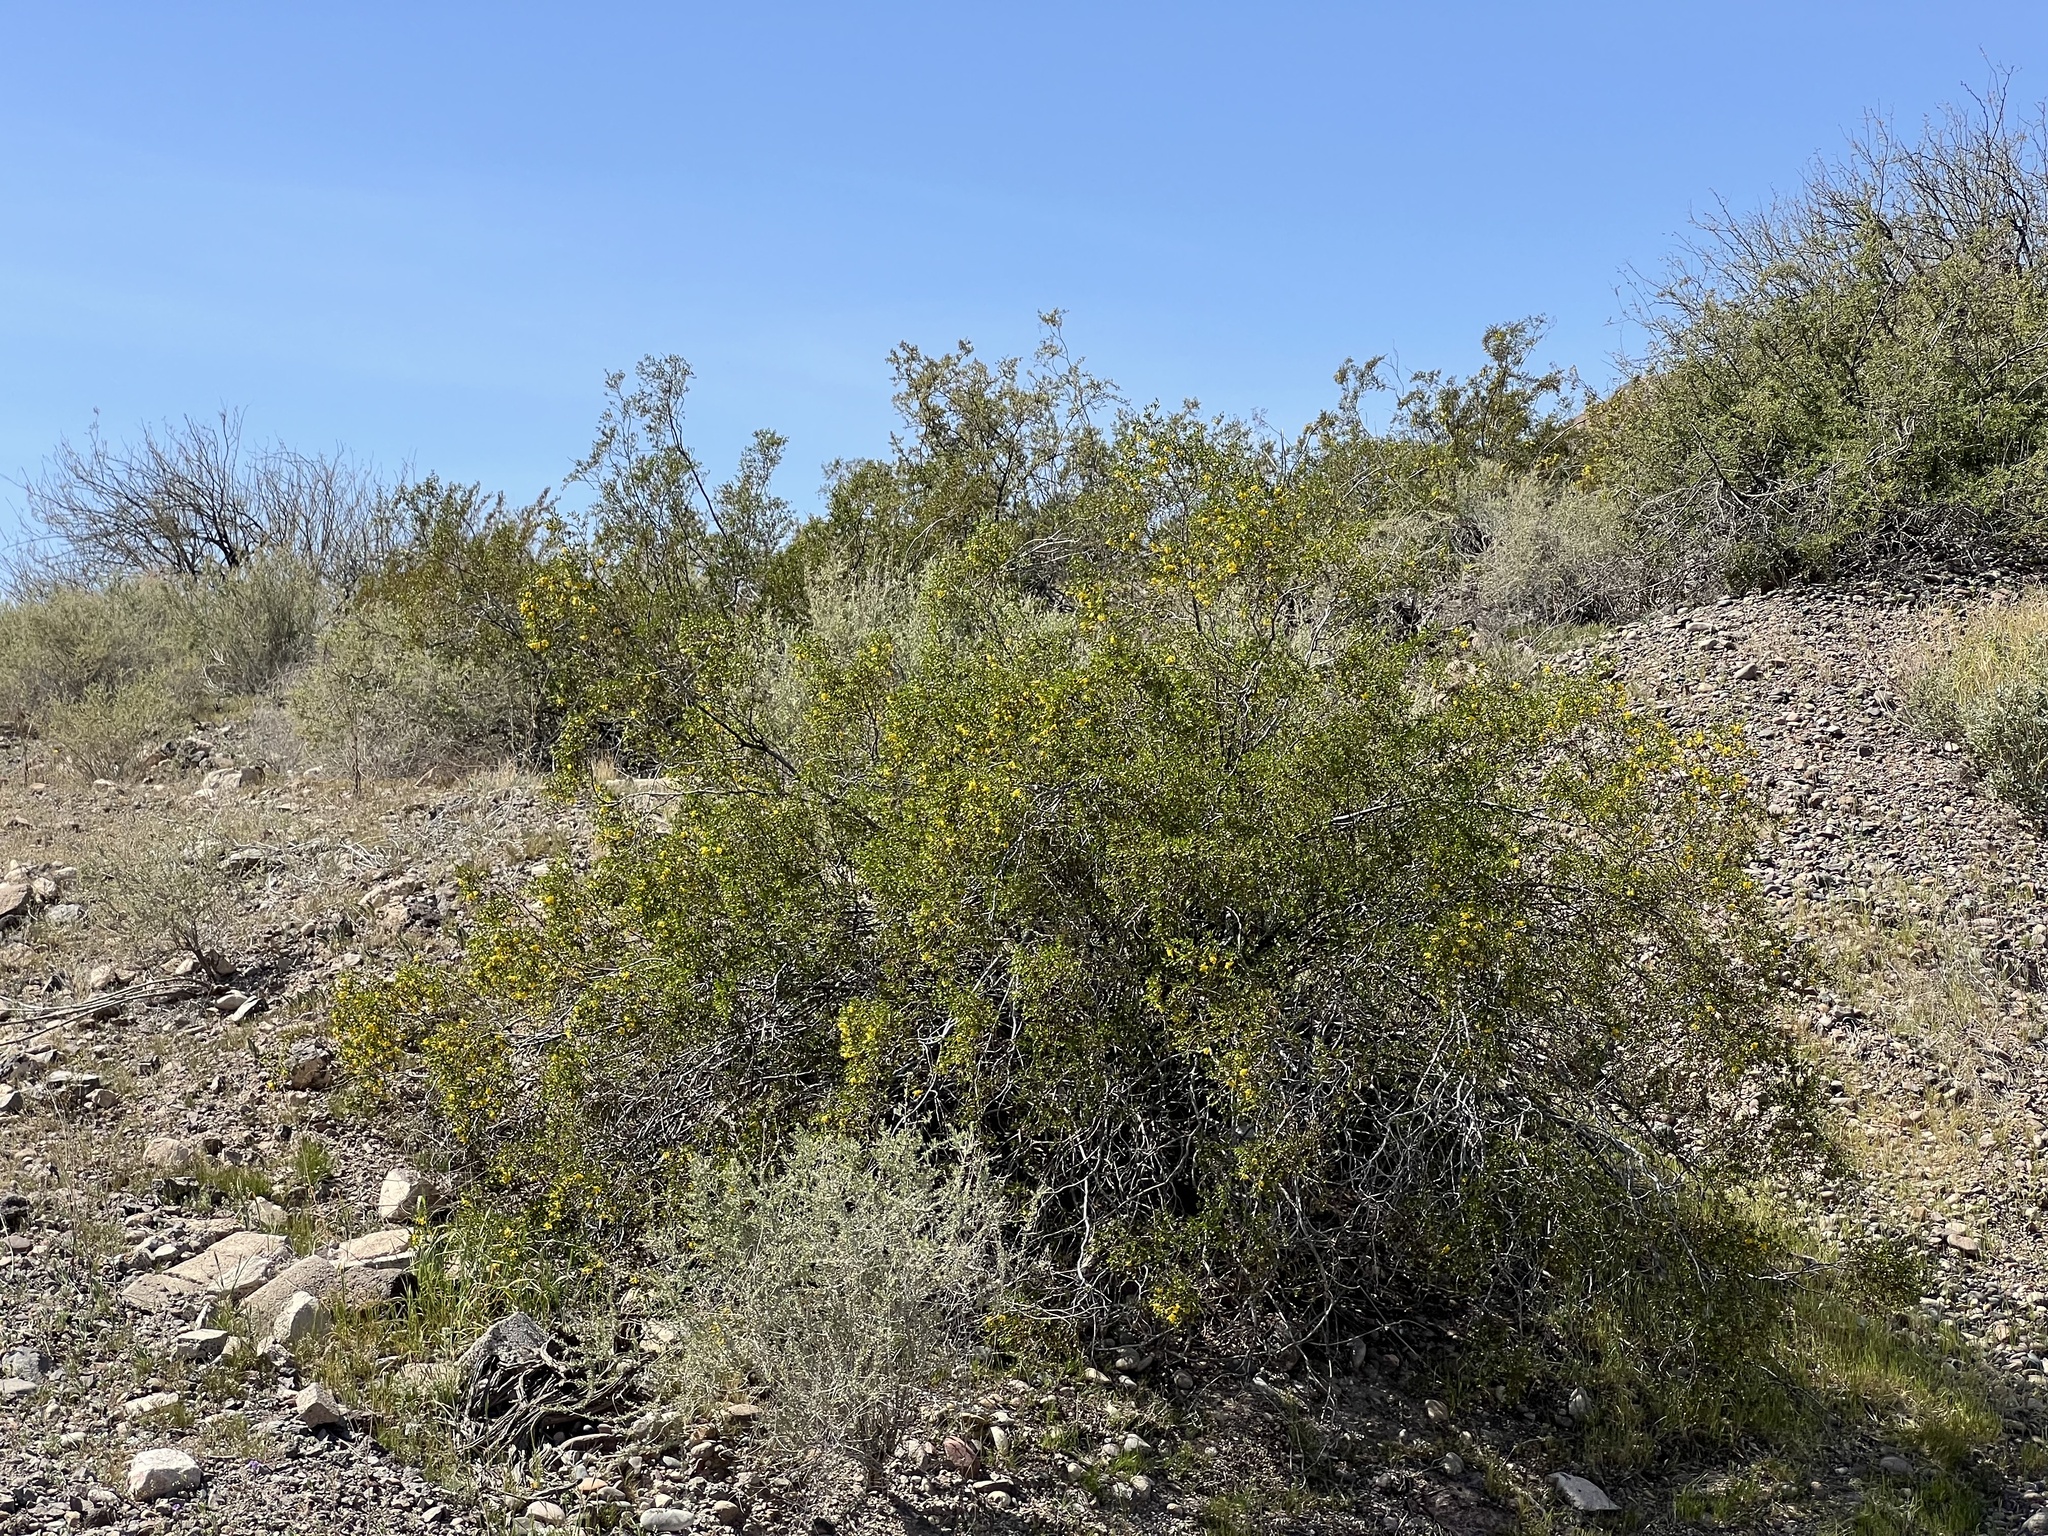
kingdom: Plantae
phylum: Tracheophyta
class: Magnoliopsida
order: Zygophyllales
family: Zygophyllaceae
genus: Larrea
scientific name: Larrea tridentata
